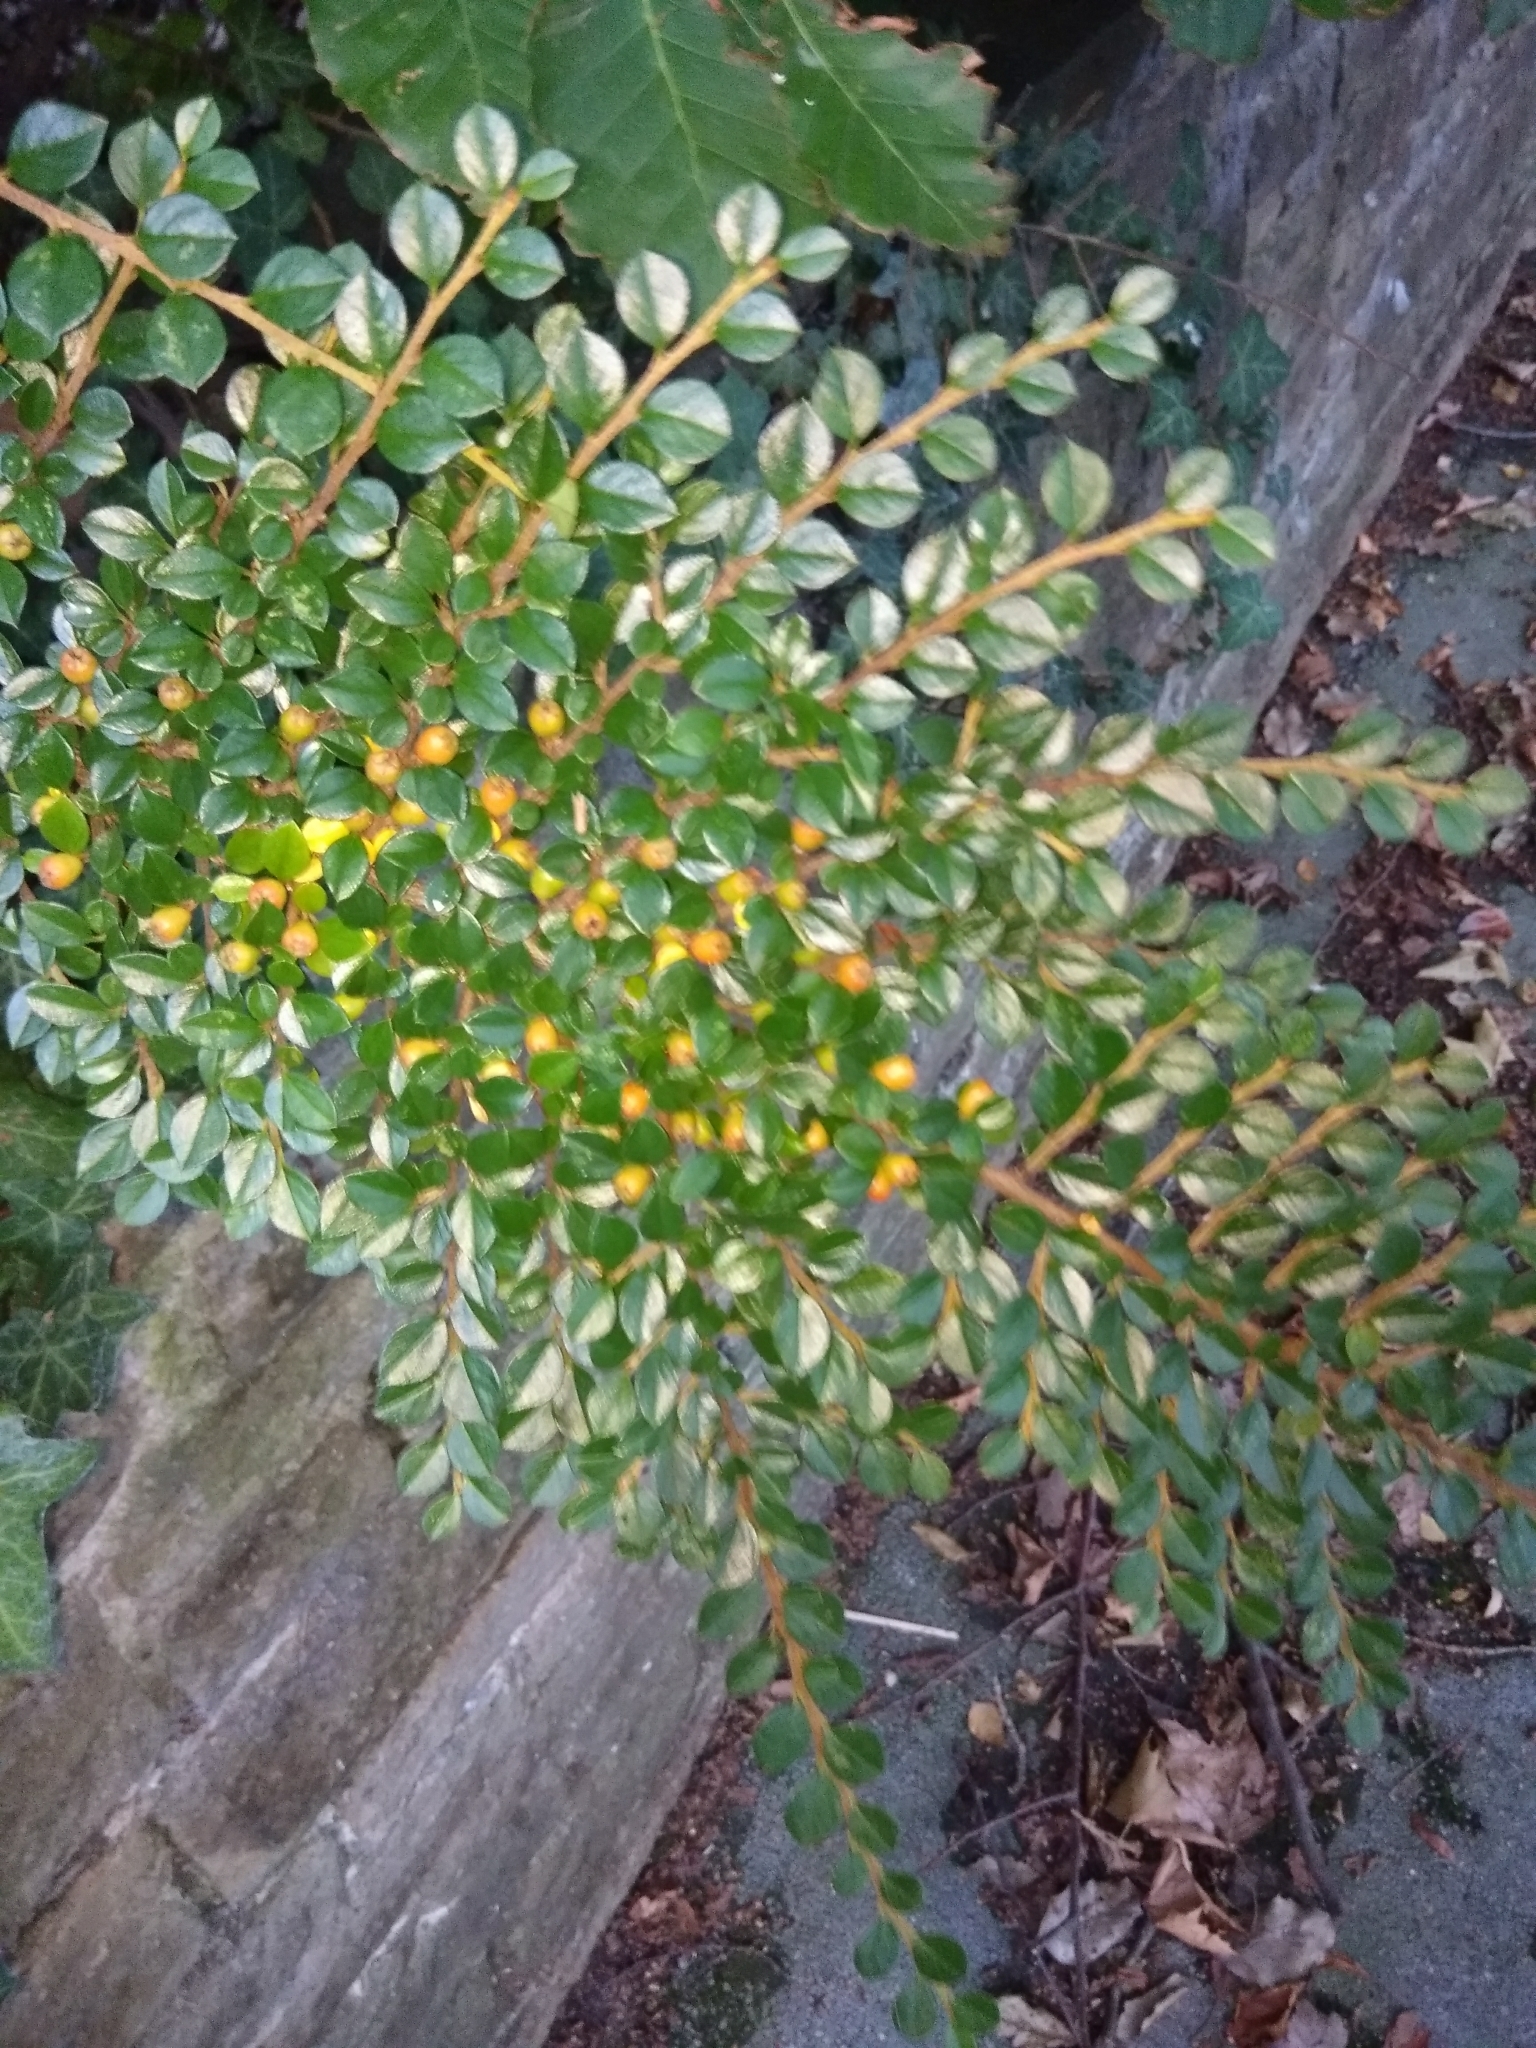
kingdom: Plantae
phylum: Tracheophyta
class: Magnoliopsida
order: Rosales
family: Rosaceae
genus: Cotoneaster
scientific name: Cotoneaster horizontalis
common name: Wall cotoneaster
